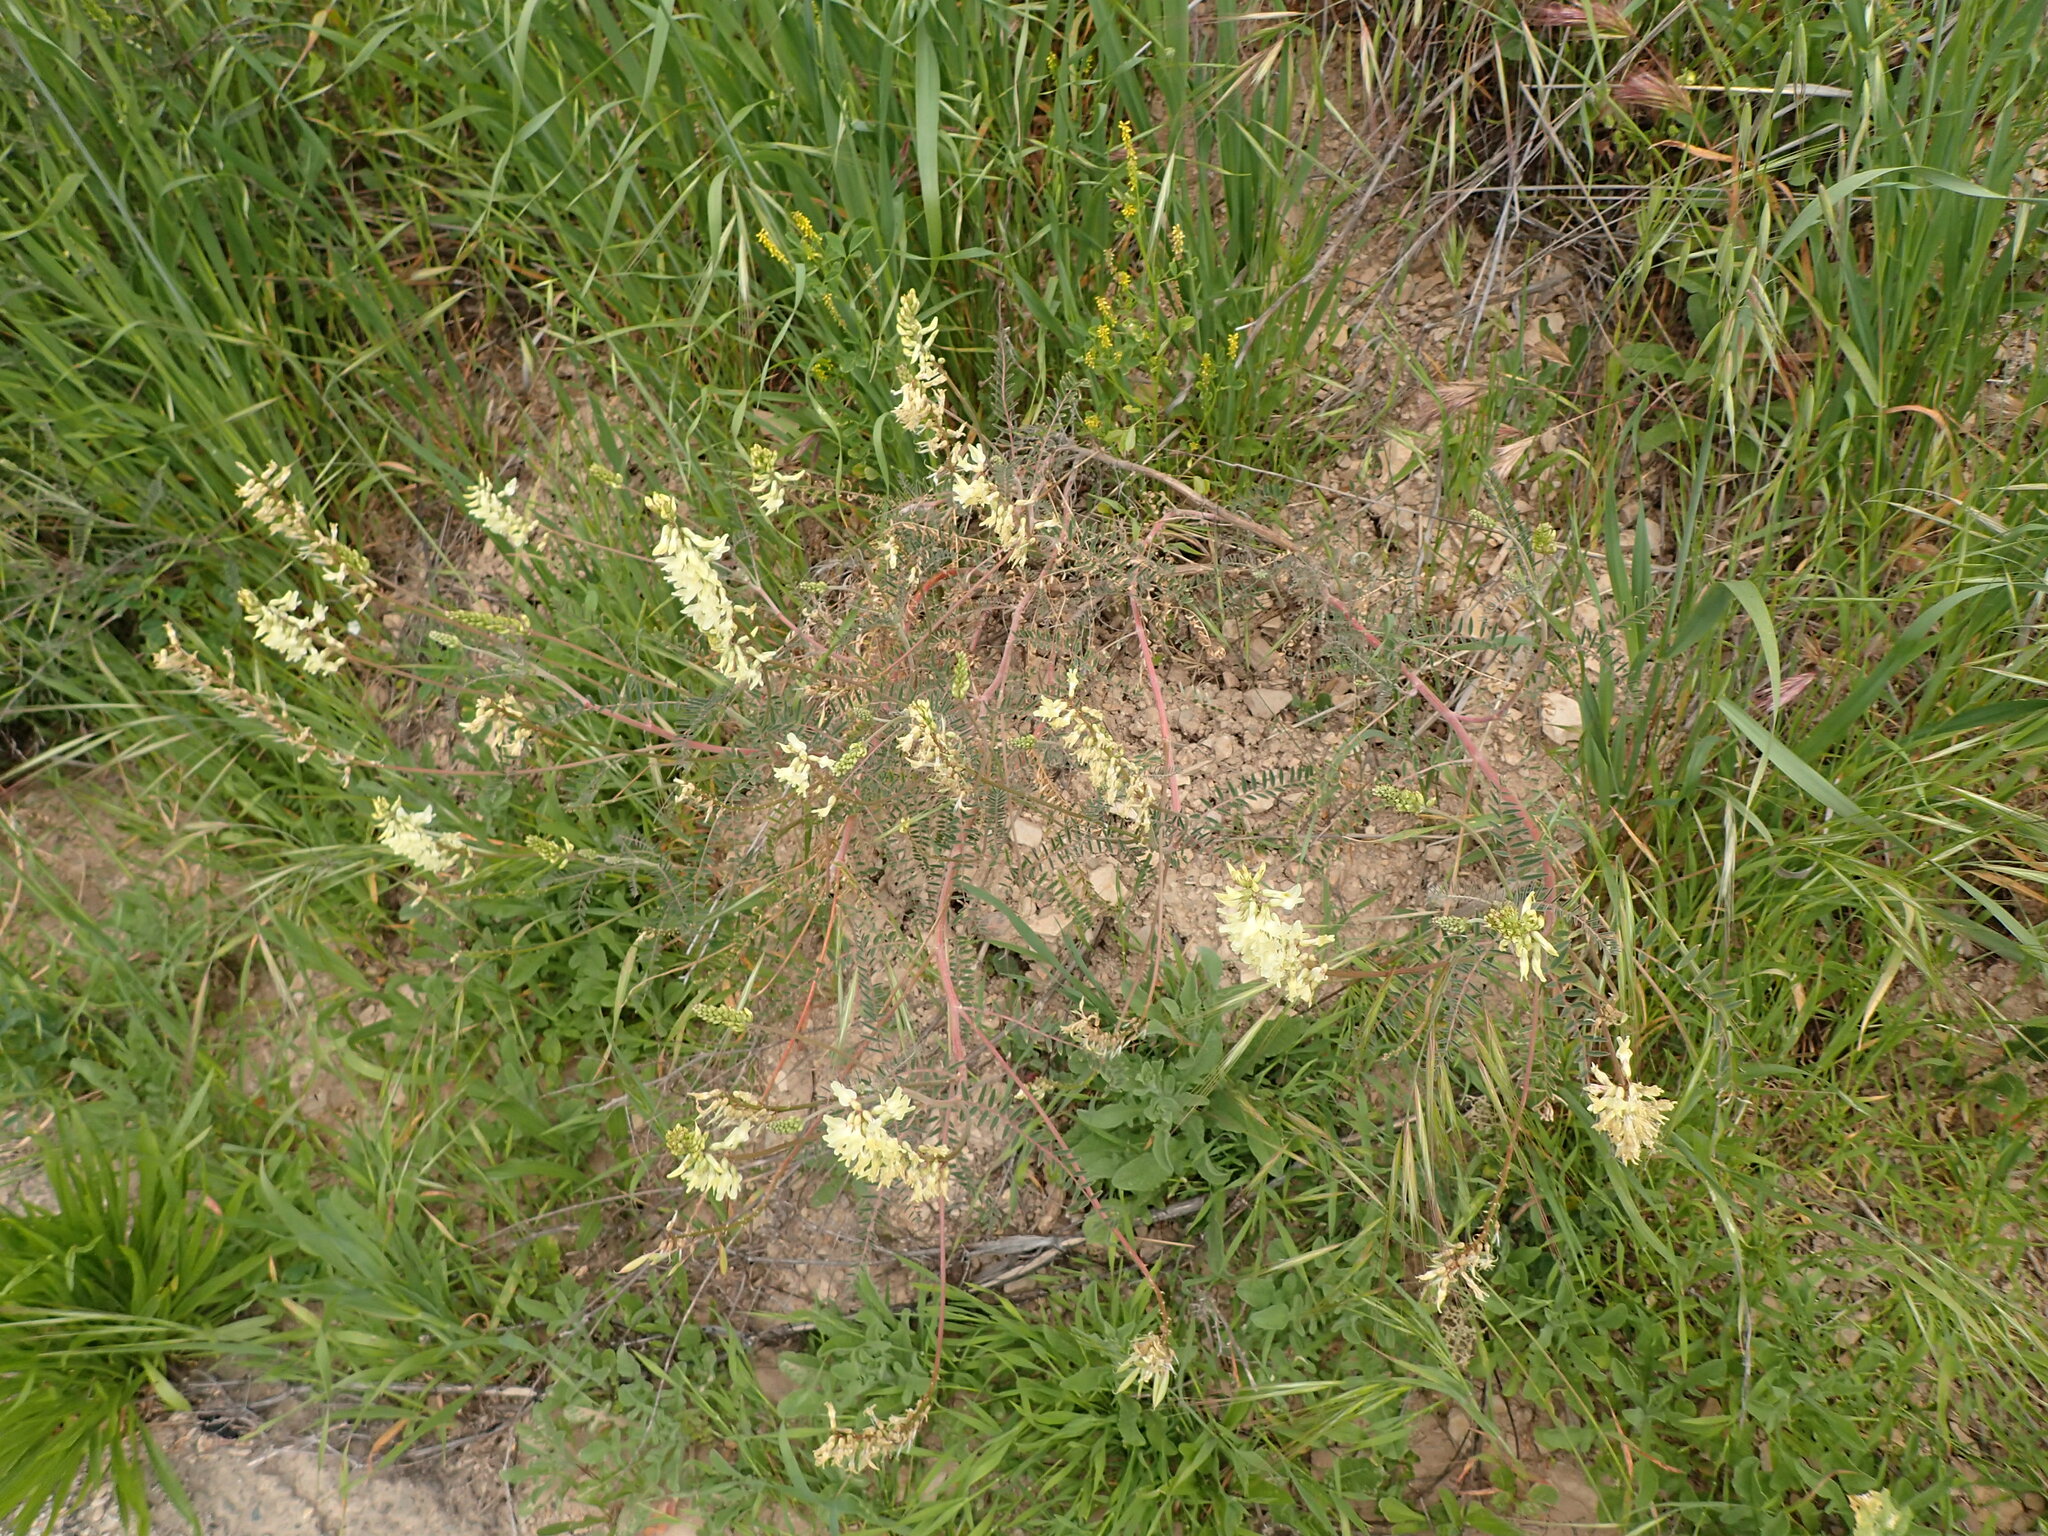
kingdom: Plantae
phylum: Tracheophyta
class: Magnoliopsida
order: Fabales
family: Fabaceae
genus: Astragalus
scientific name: Astragalus trichopodus
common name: Santa barbara milk-vetch
